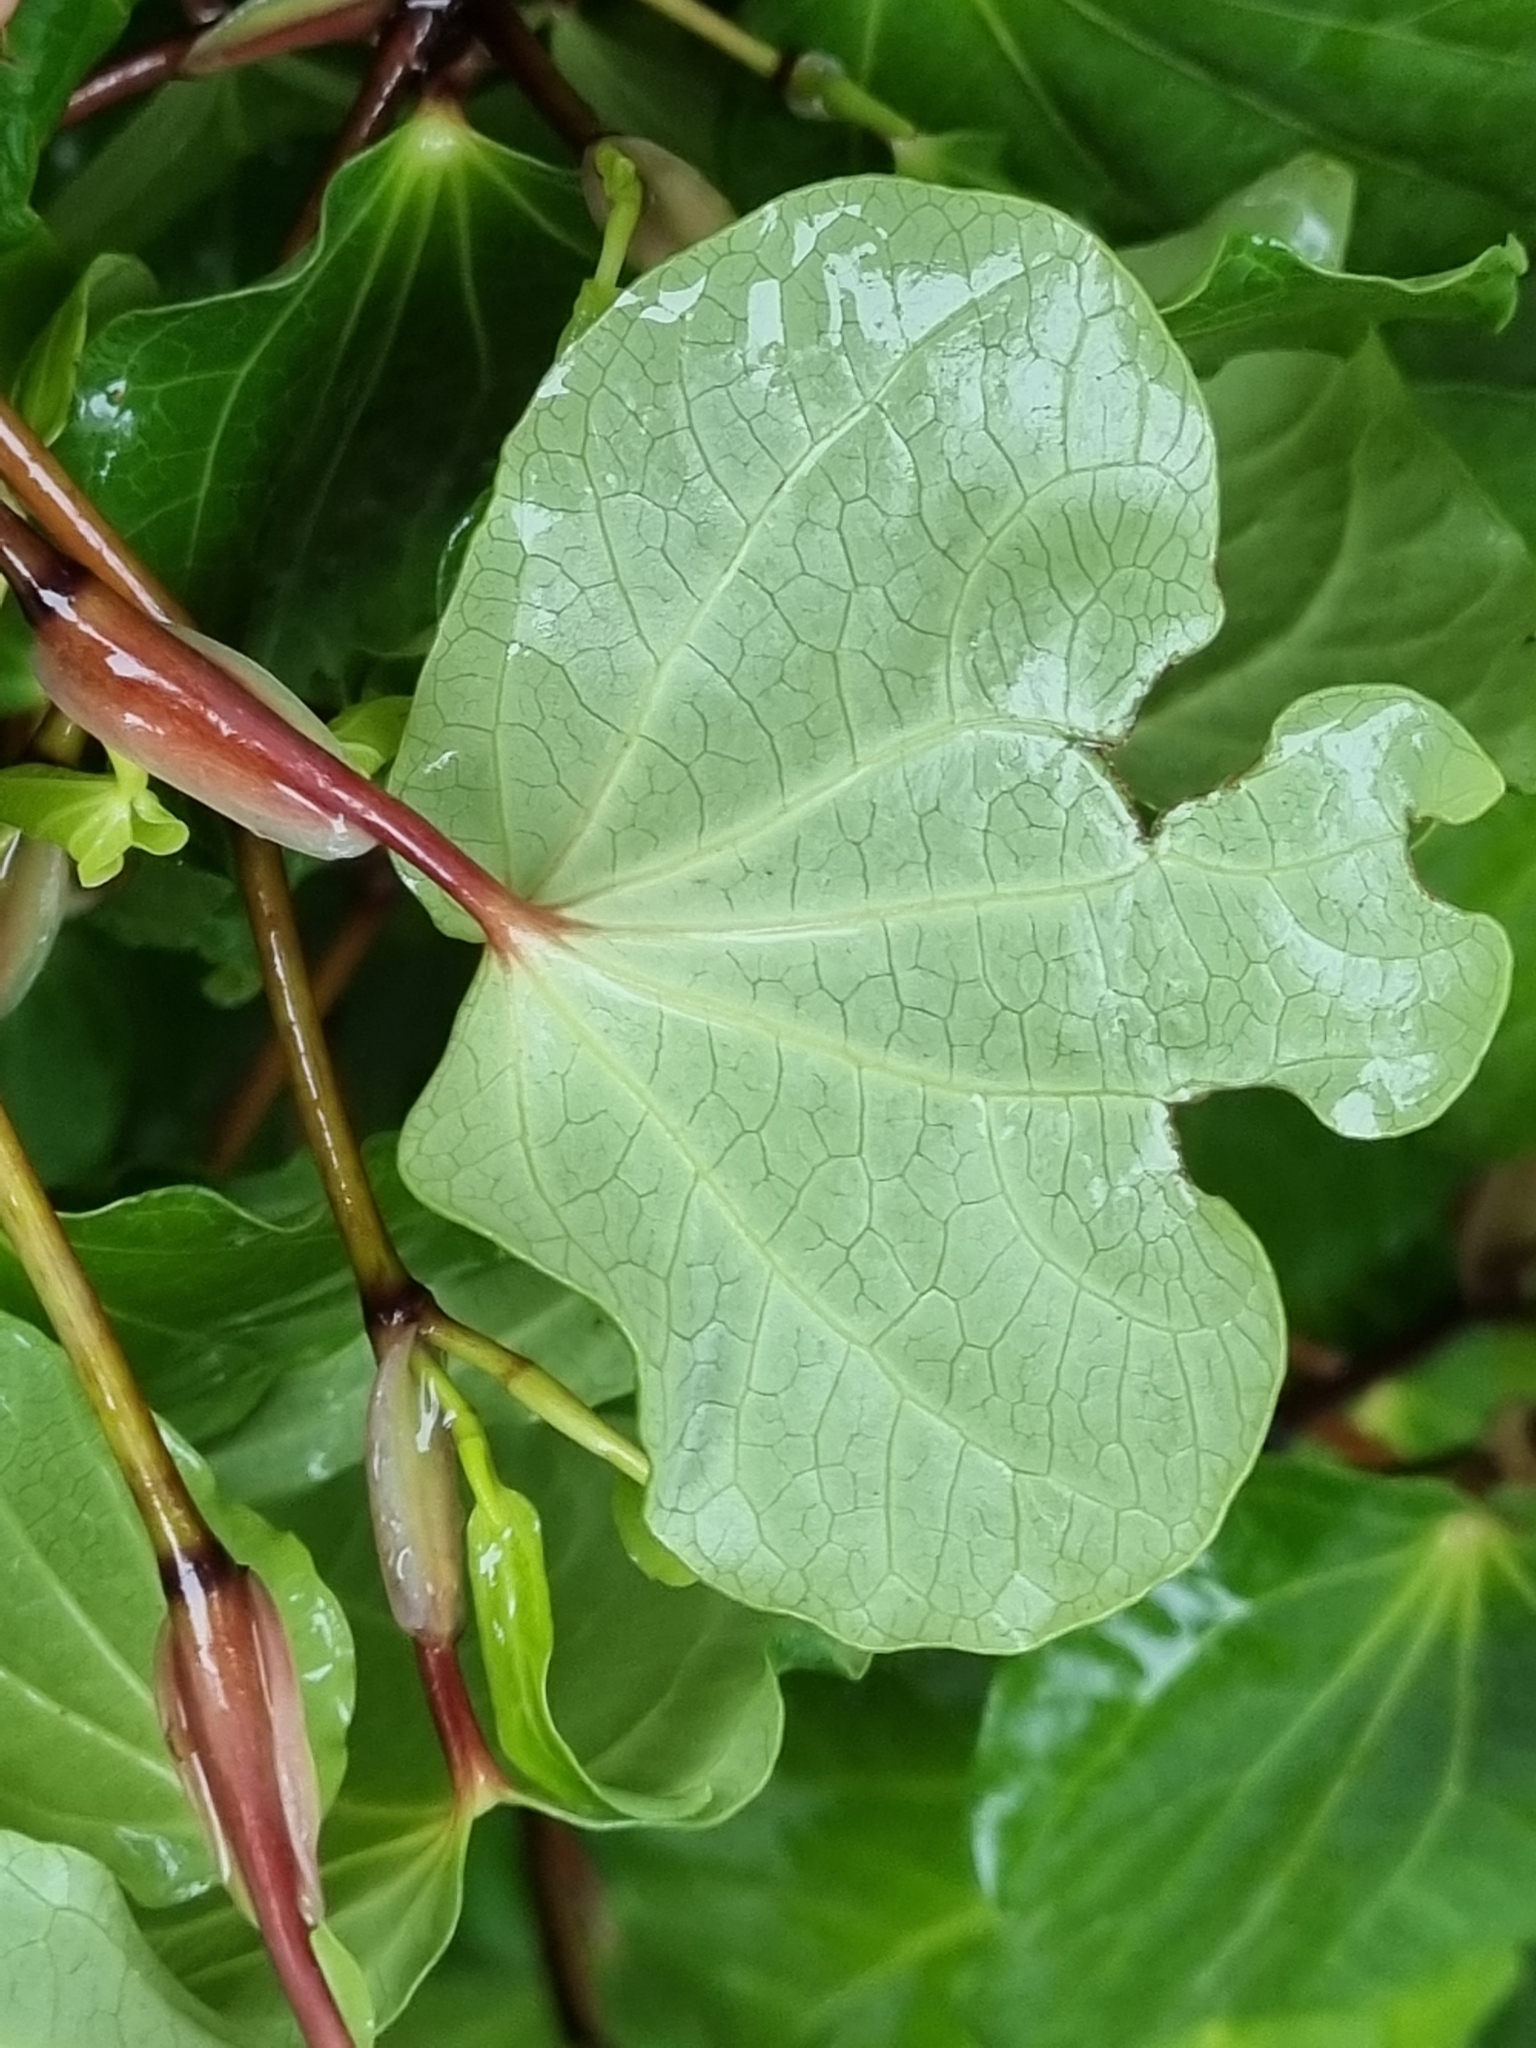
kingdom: Plantae
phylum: Tracheophyta
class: Magnoliopsida
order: Piperales
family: Piperaceae
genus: Macropiper
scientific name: Macropiper excelsum
